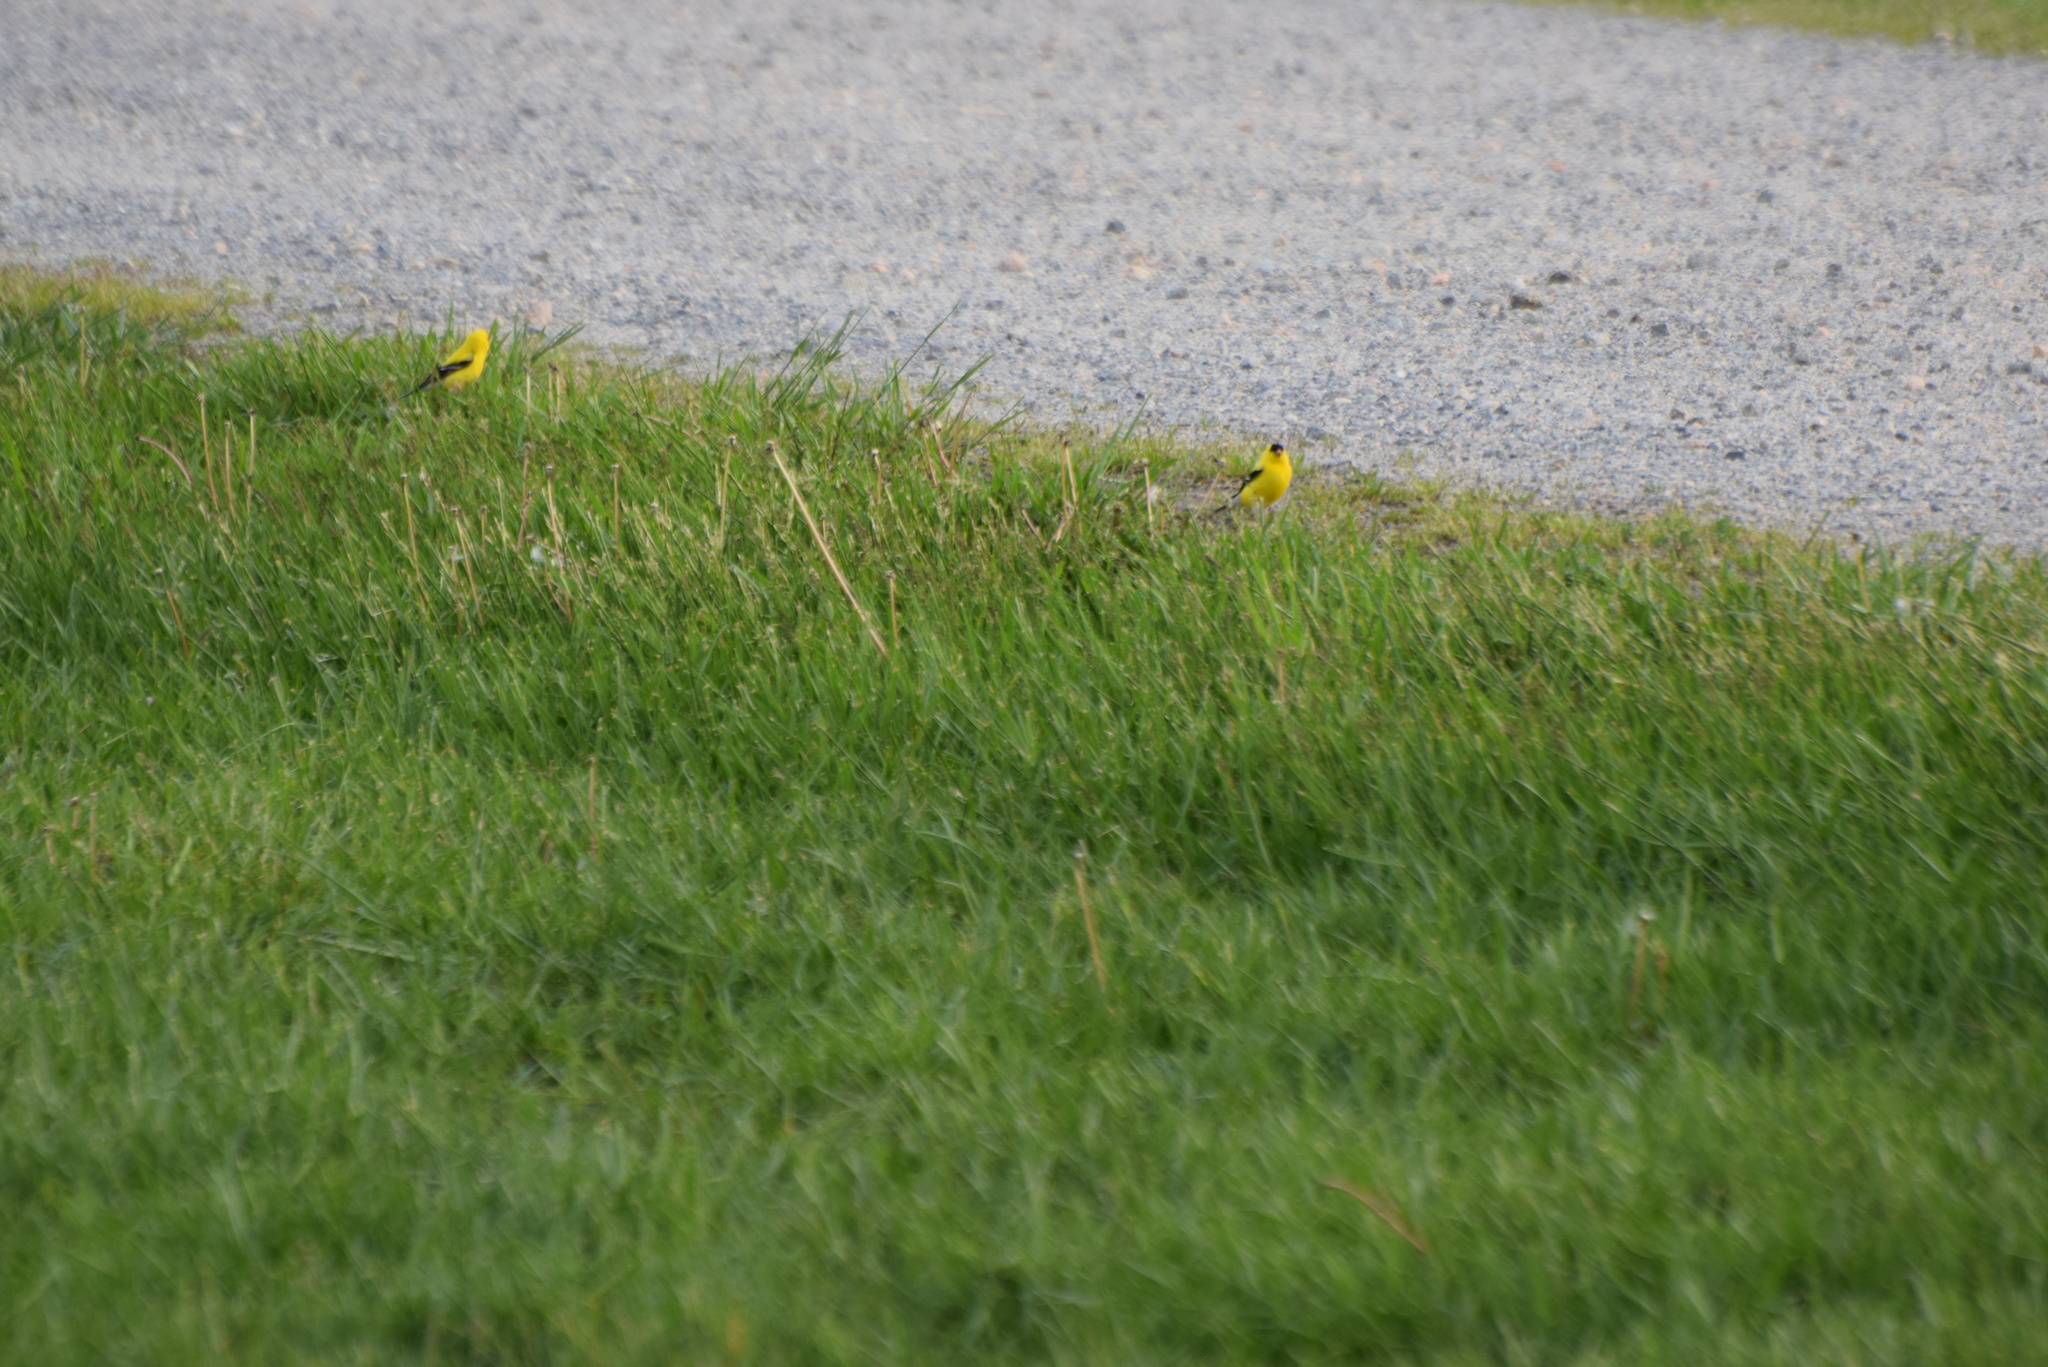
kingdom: Animalia
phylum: Chordata
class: Aves
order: Passeriformes
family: Fringillidae
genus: Spinus
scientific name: Spinus tristis
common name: American goldfinch
